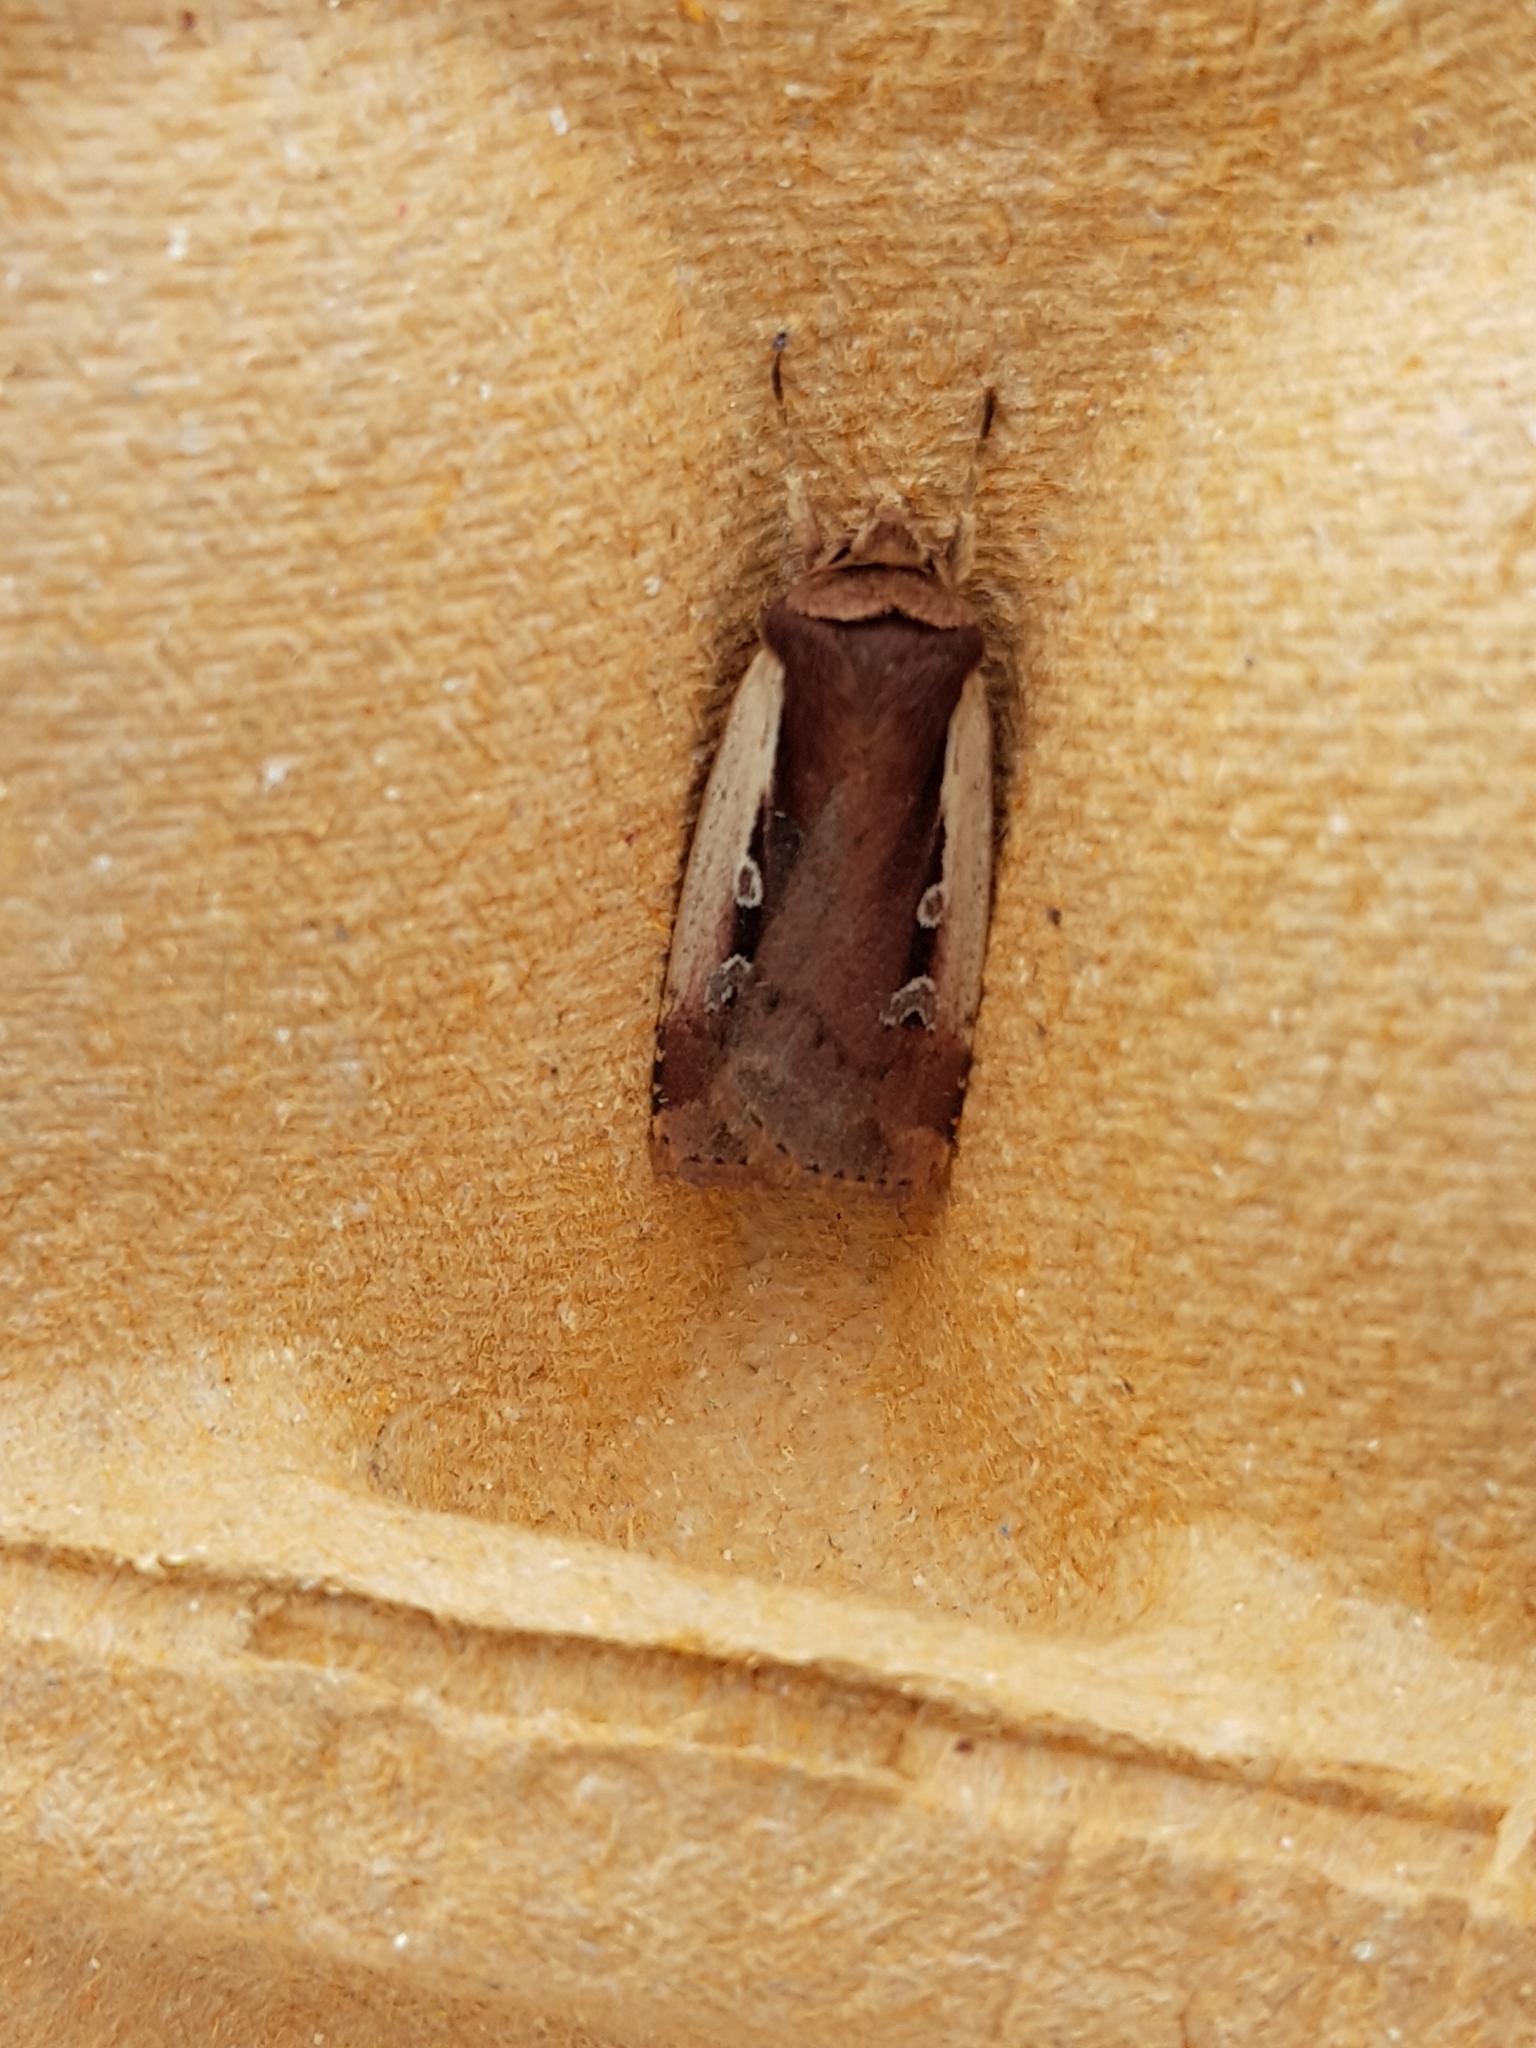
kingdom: Animalia
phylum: Arthropoda
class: Insecta
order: Lepidoptera
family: Noctuidae
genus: Ochropleura
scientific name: Ochropleura plecta
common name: Flame shoulder
